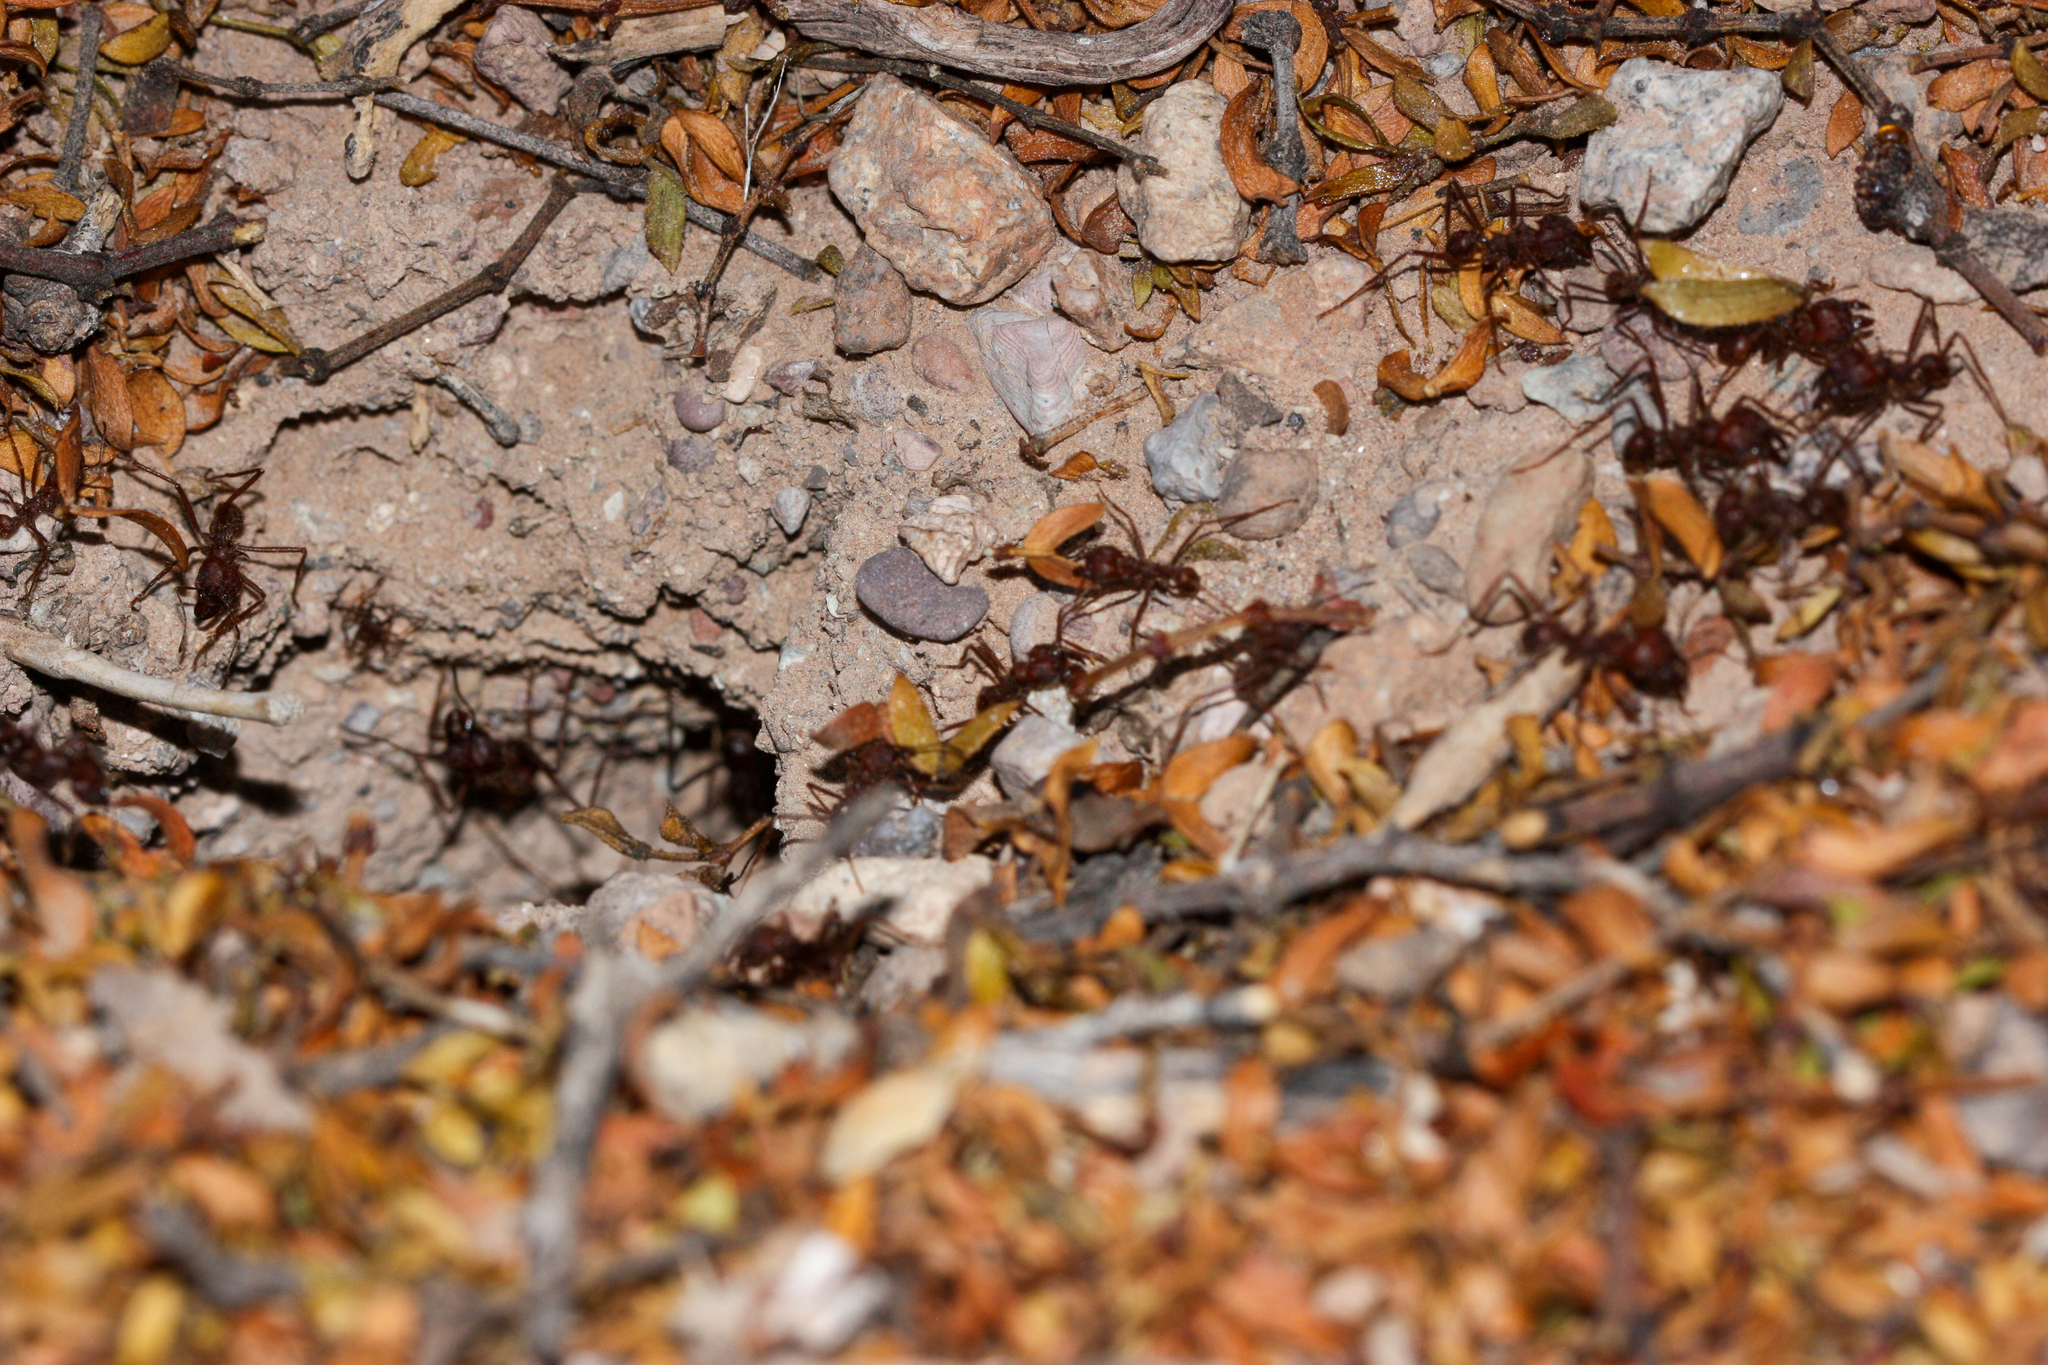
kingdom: Animalia
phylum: Arthropoda
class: Insecta
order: Hymenoptera
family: Formicidae
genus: Atta
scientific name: Atta mexicana
